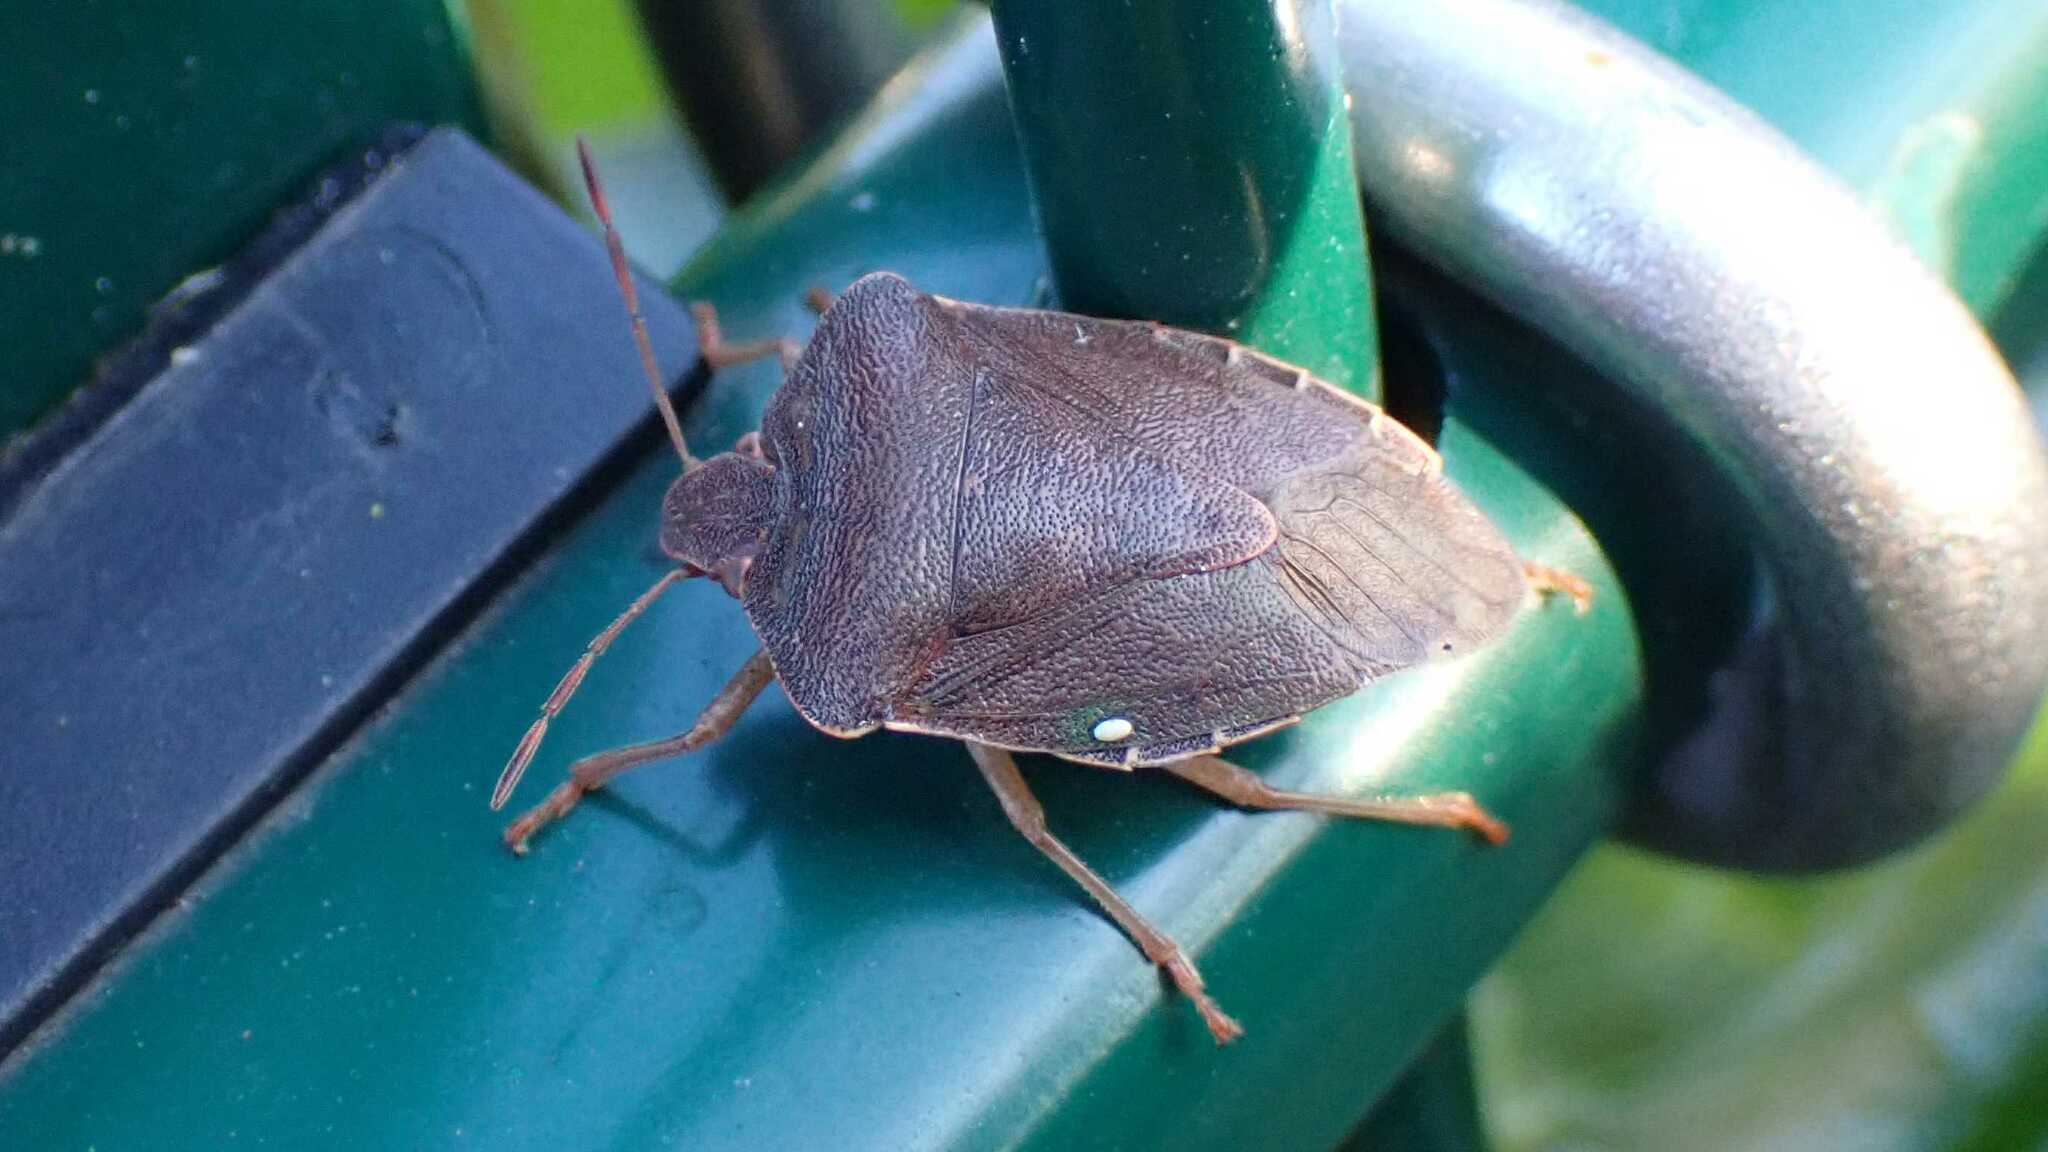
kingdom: Animalia
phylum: Arthropoda
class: Insecta
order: Hemiptera
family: Pentatomidae
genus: Palomena
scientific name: Palomena prasina
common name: Green shieldbug
